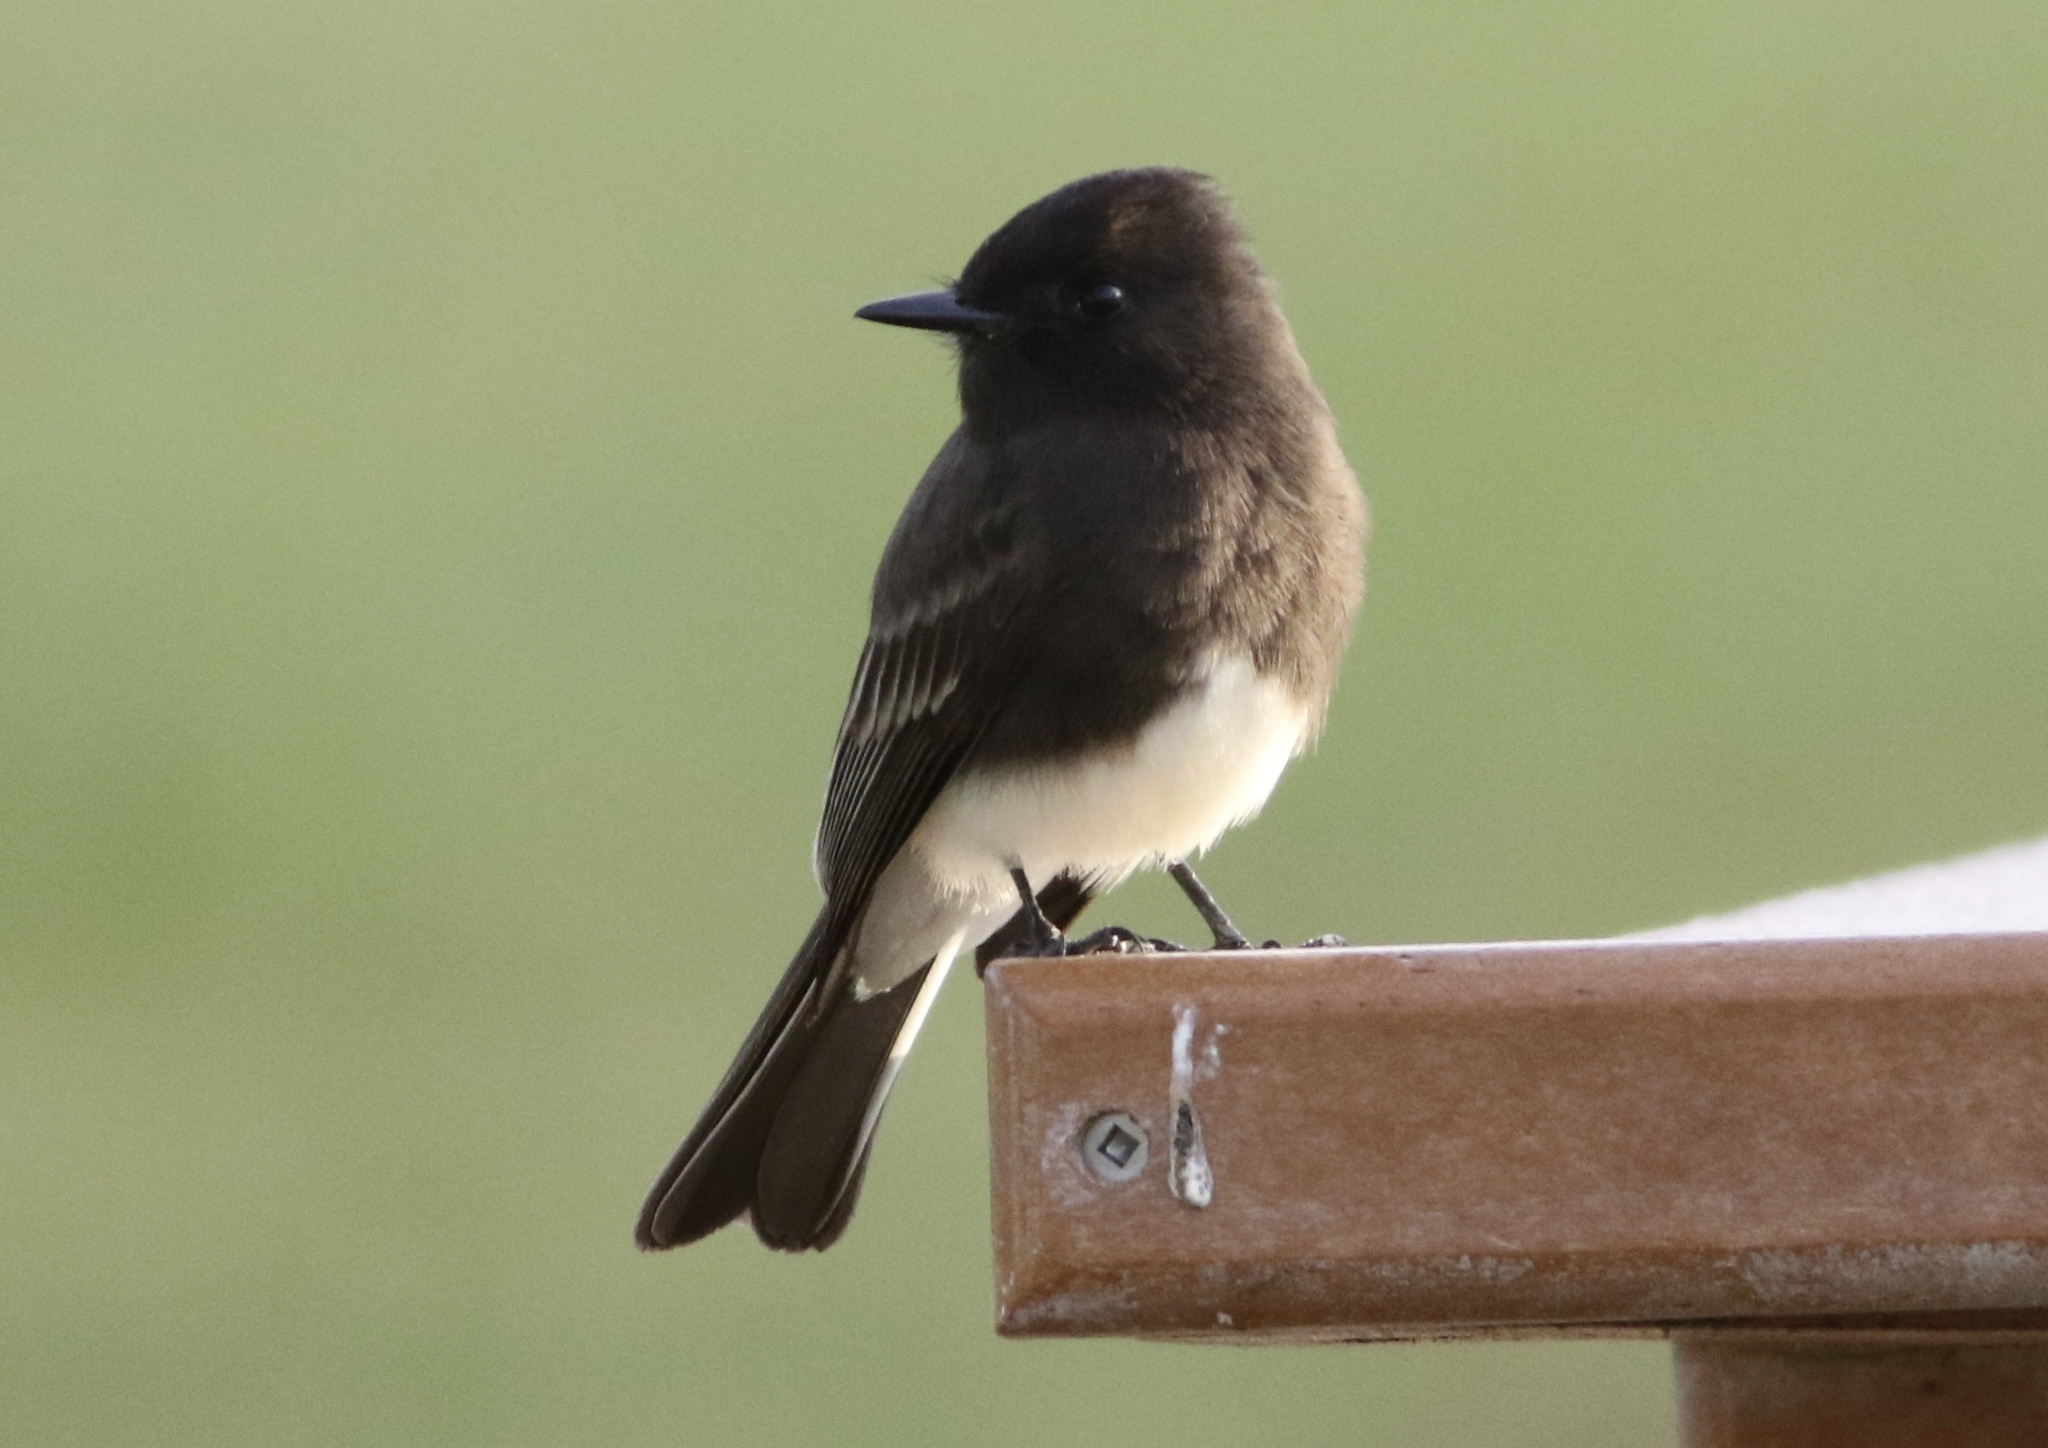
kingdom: Animalia
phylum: Chordata
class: Aves
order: Passeriformes
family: Tyrannidae
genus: Sayornis
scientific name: Sayornis nigricans
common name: Black phoebe
